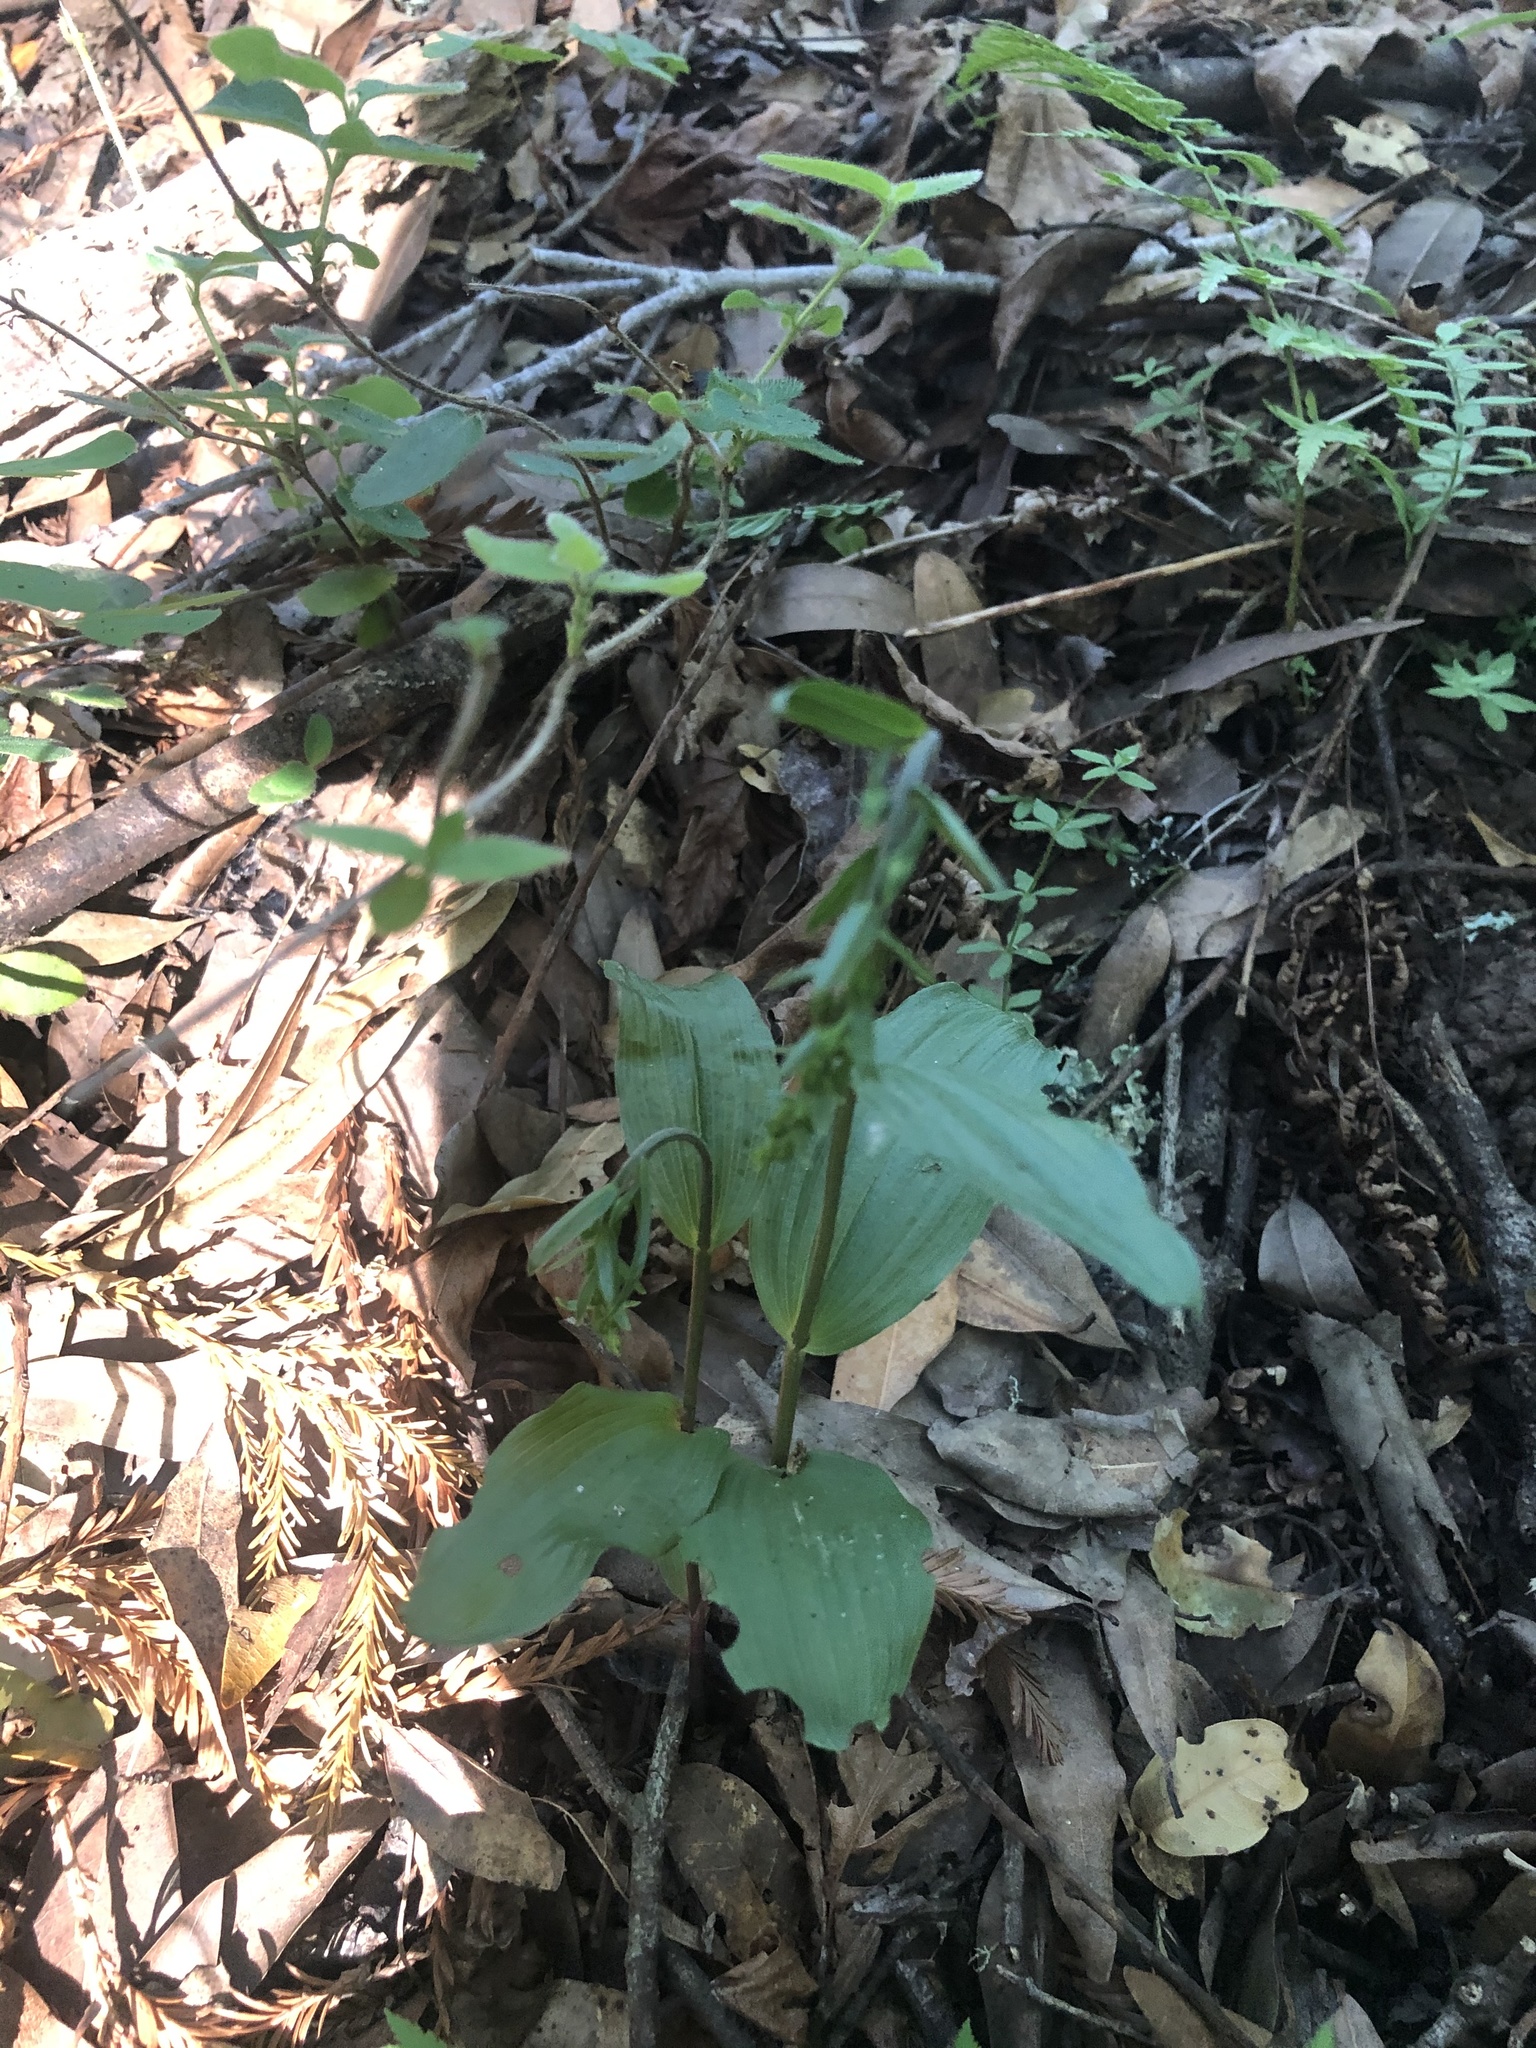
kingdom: Plantae
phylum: Tracheophyta
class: Liliopsida
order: Asparagales
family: Orchidaceae
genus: Epipactis
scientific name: Epipactis helleborine
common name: Broad-leaved helleborine
